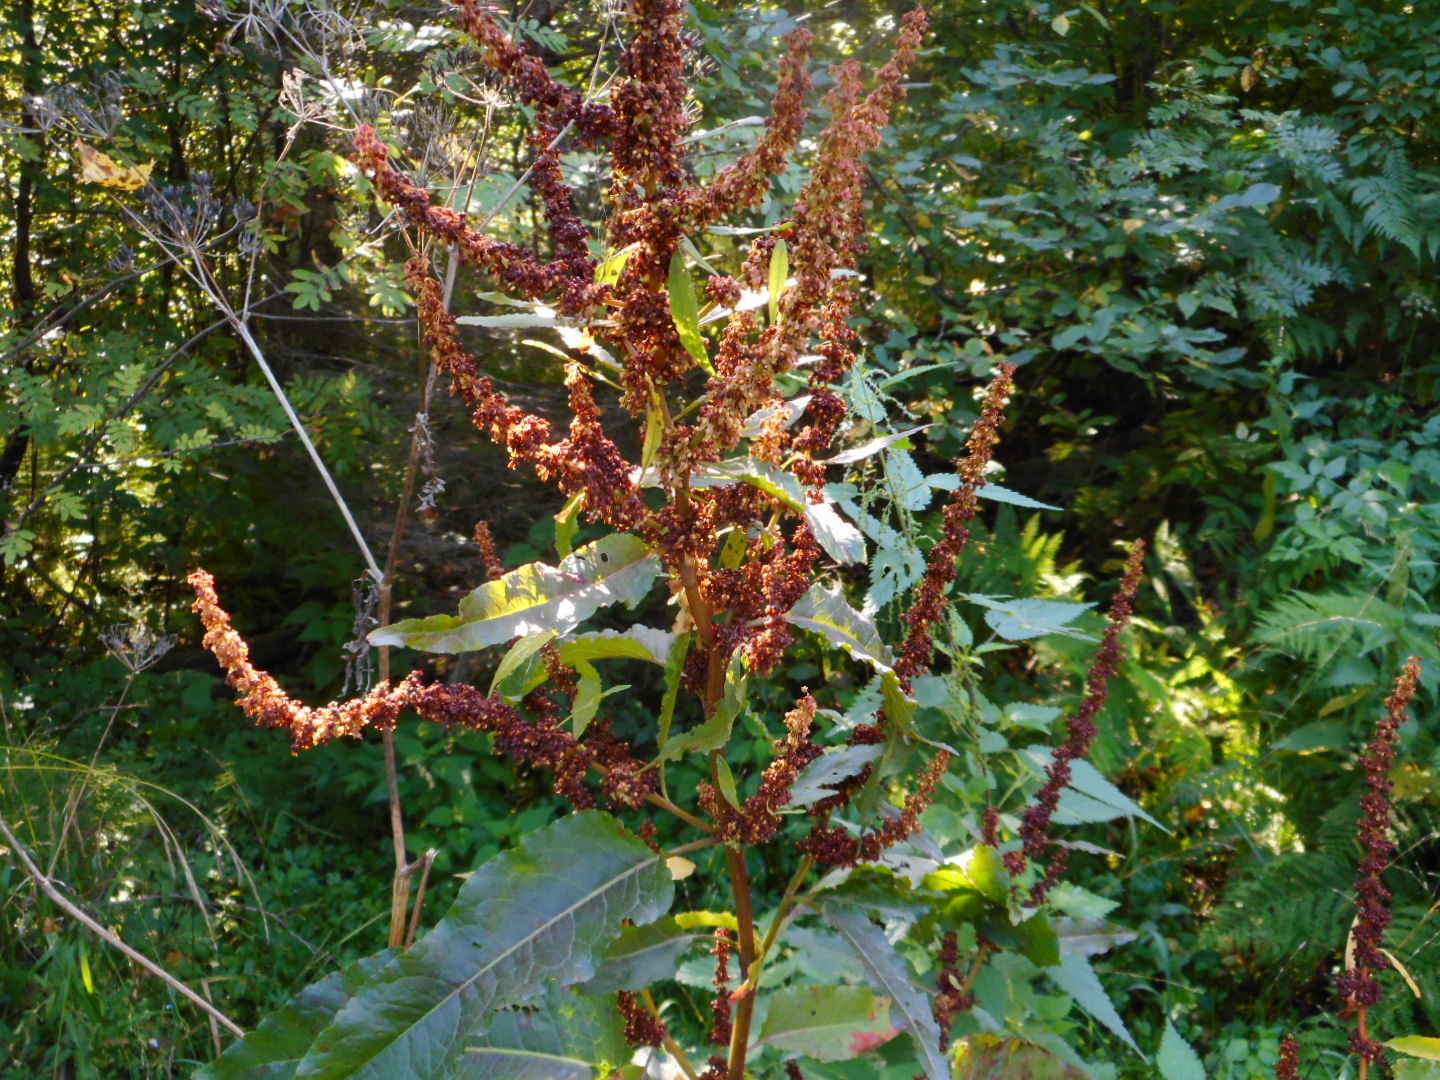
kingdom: Plantae
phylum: Tracheophyta
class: Magnoliopsida
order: Caryophyllales
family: Polygonaceae
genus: Rumex
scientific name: Rumex obtusifolius
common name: Bitter dock
